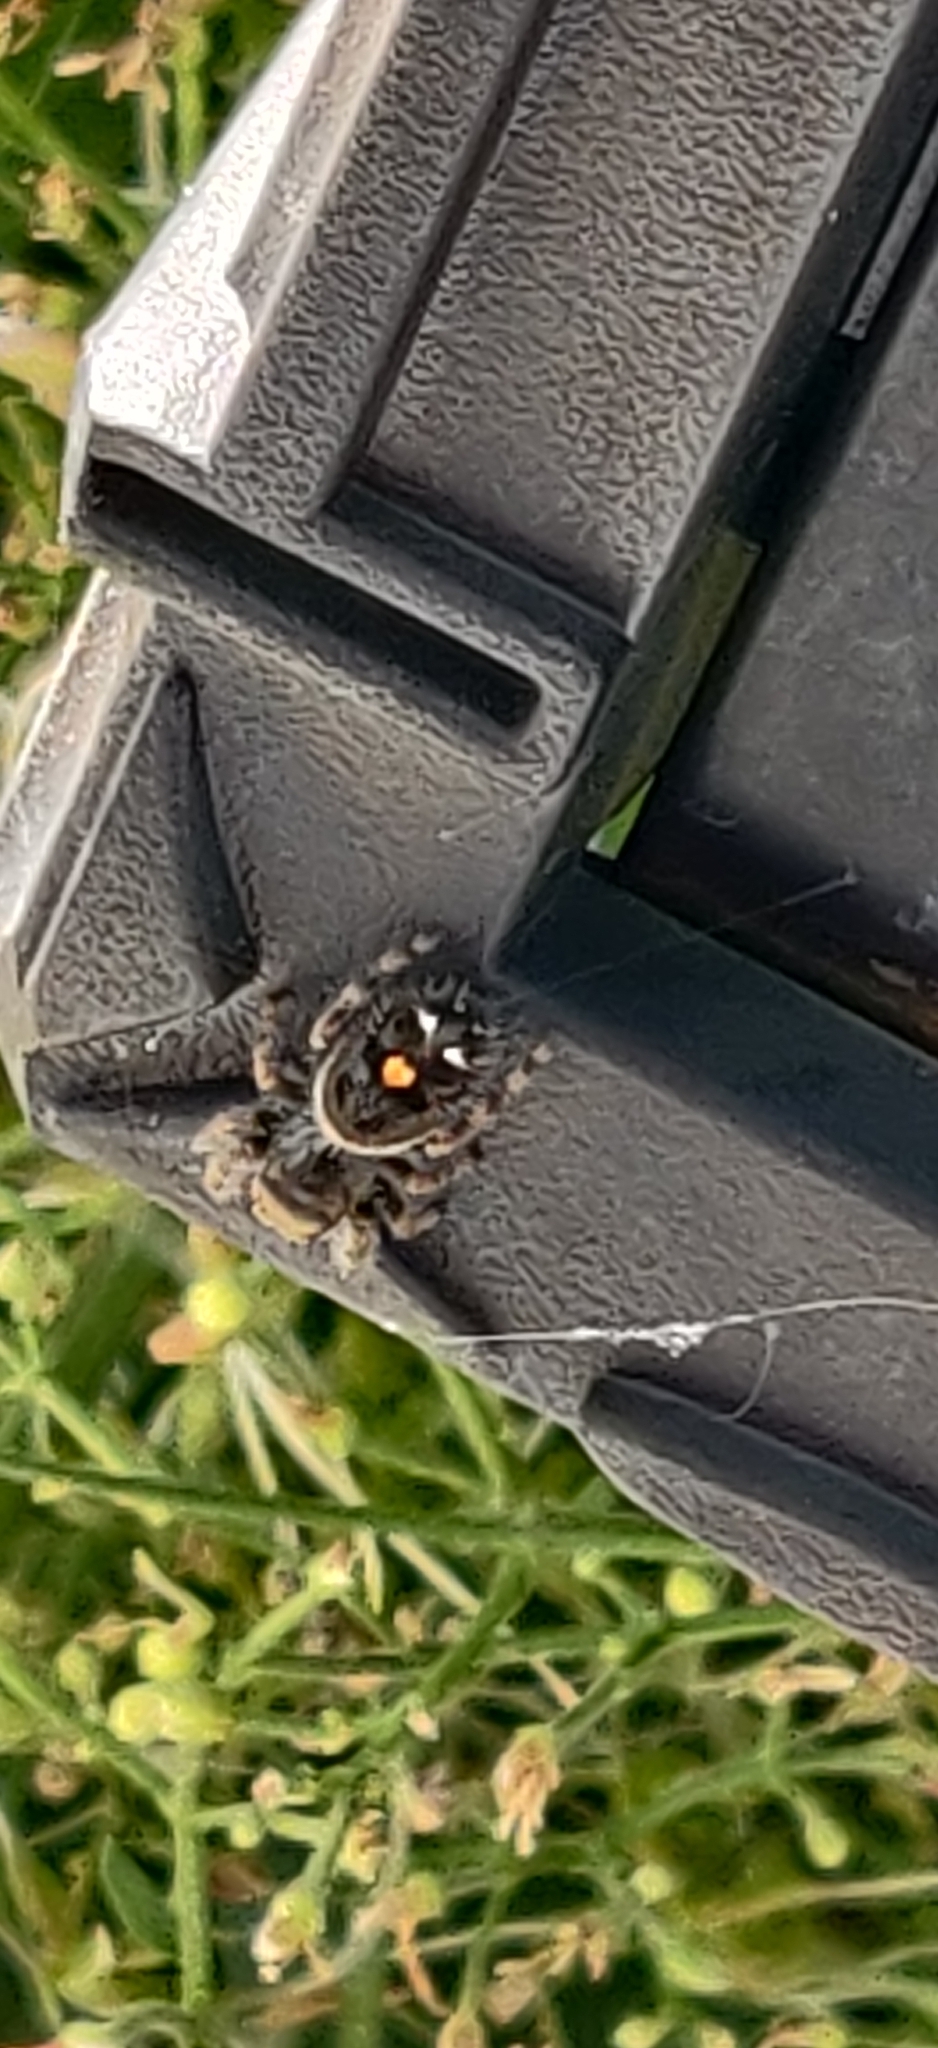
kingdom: Animalia
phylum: Arthropoda
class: Arachnida
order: Araneae
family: Salticidae
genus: Phidippus
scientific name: Phidippus audax
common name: Bold jumper
